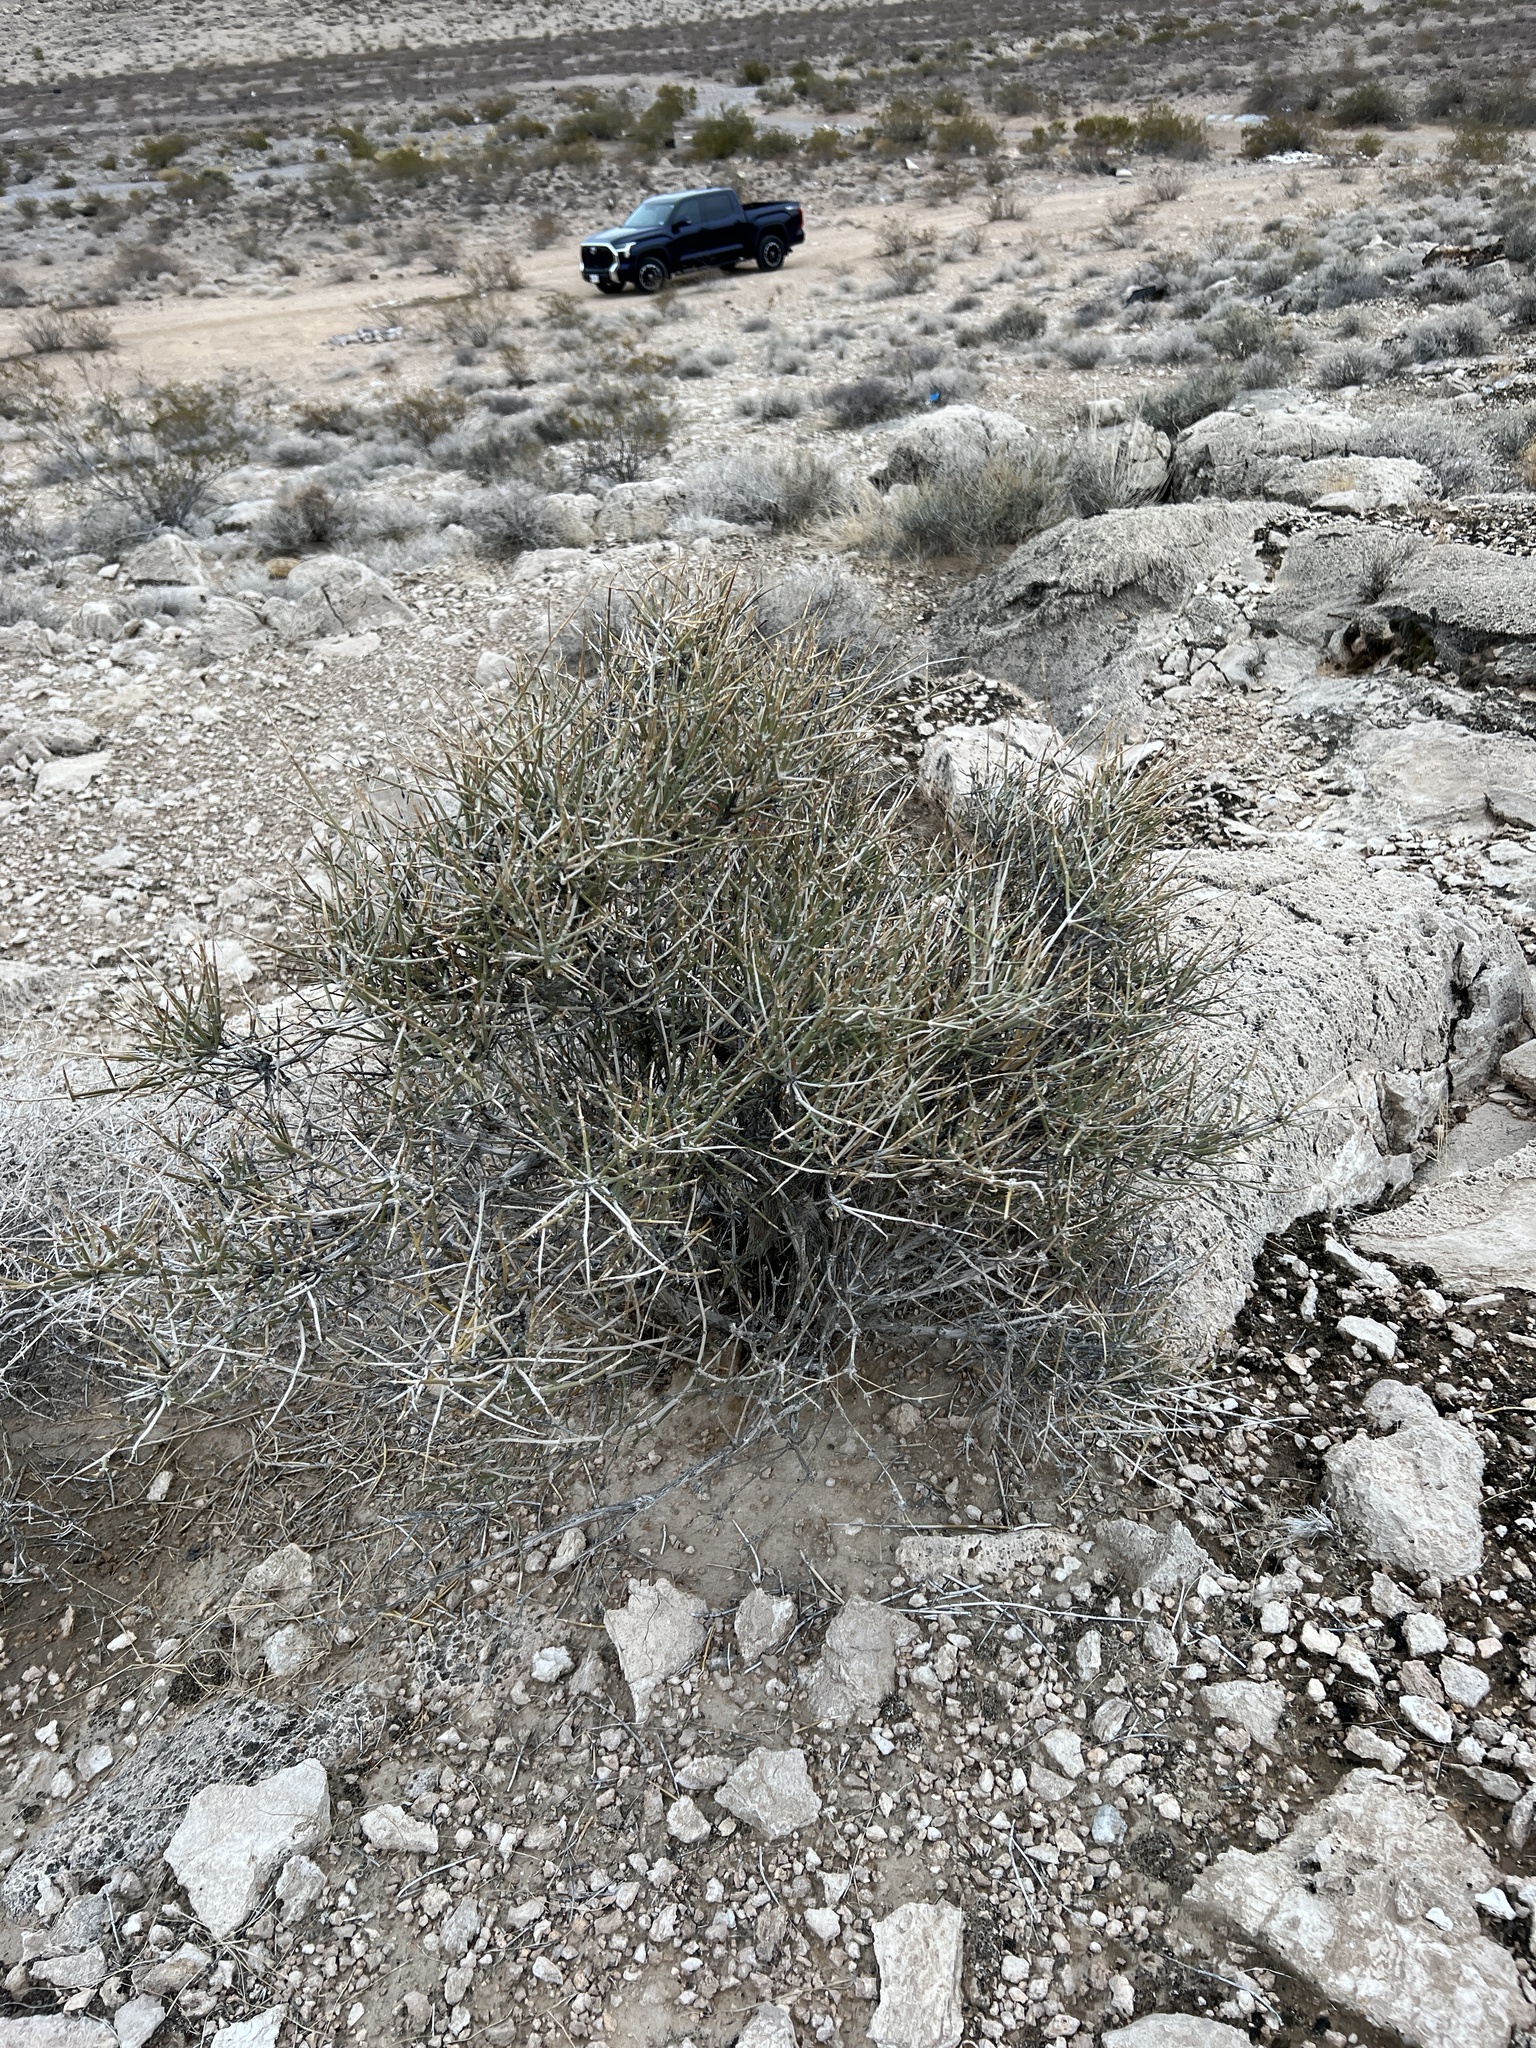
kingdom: Plantae
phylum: Tracheophyta
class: Gnetopsida
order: Ephedrales
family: Ephedraceae
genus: Ephedra
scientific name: Ephedra nevadensis
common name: Gray ephedra
